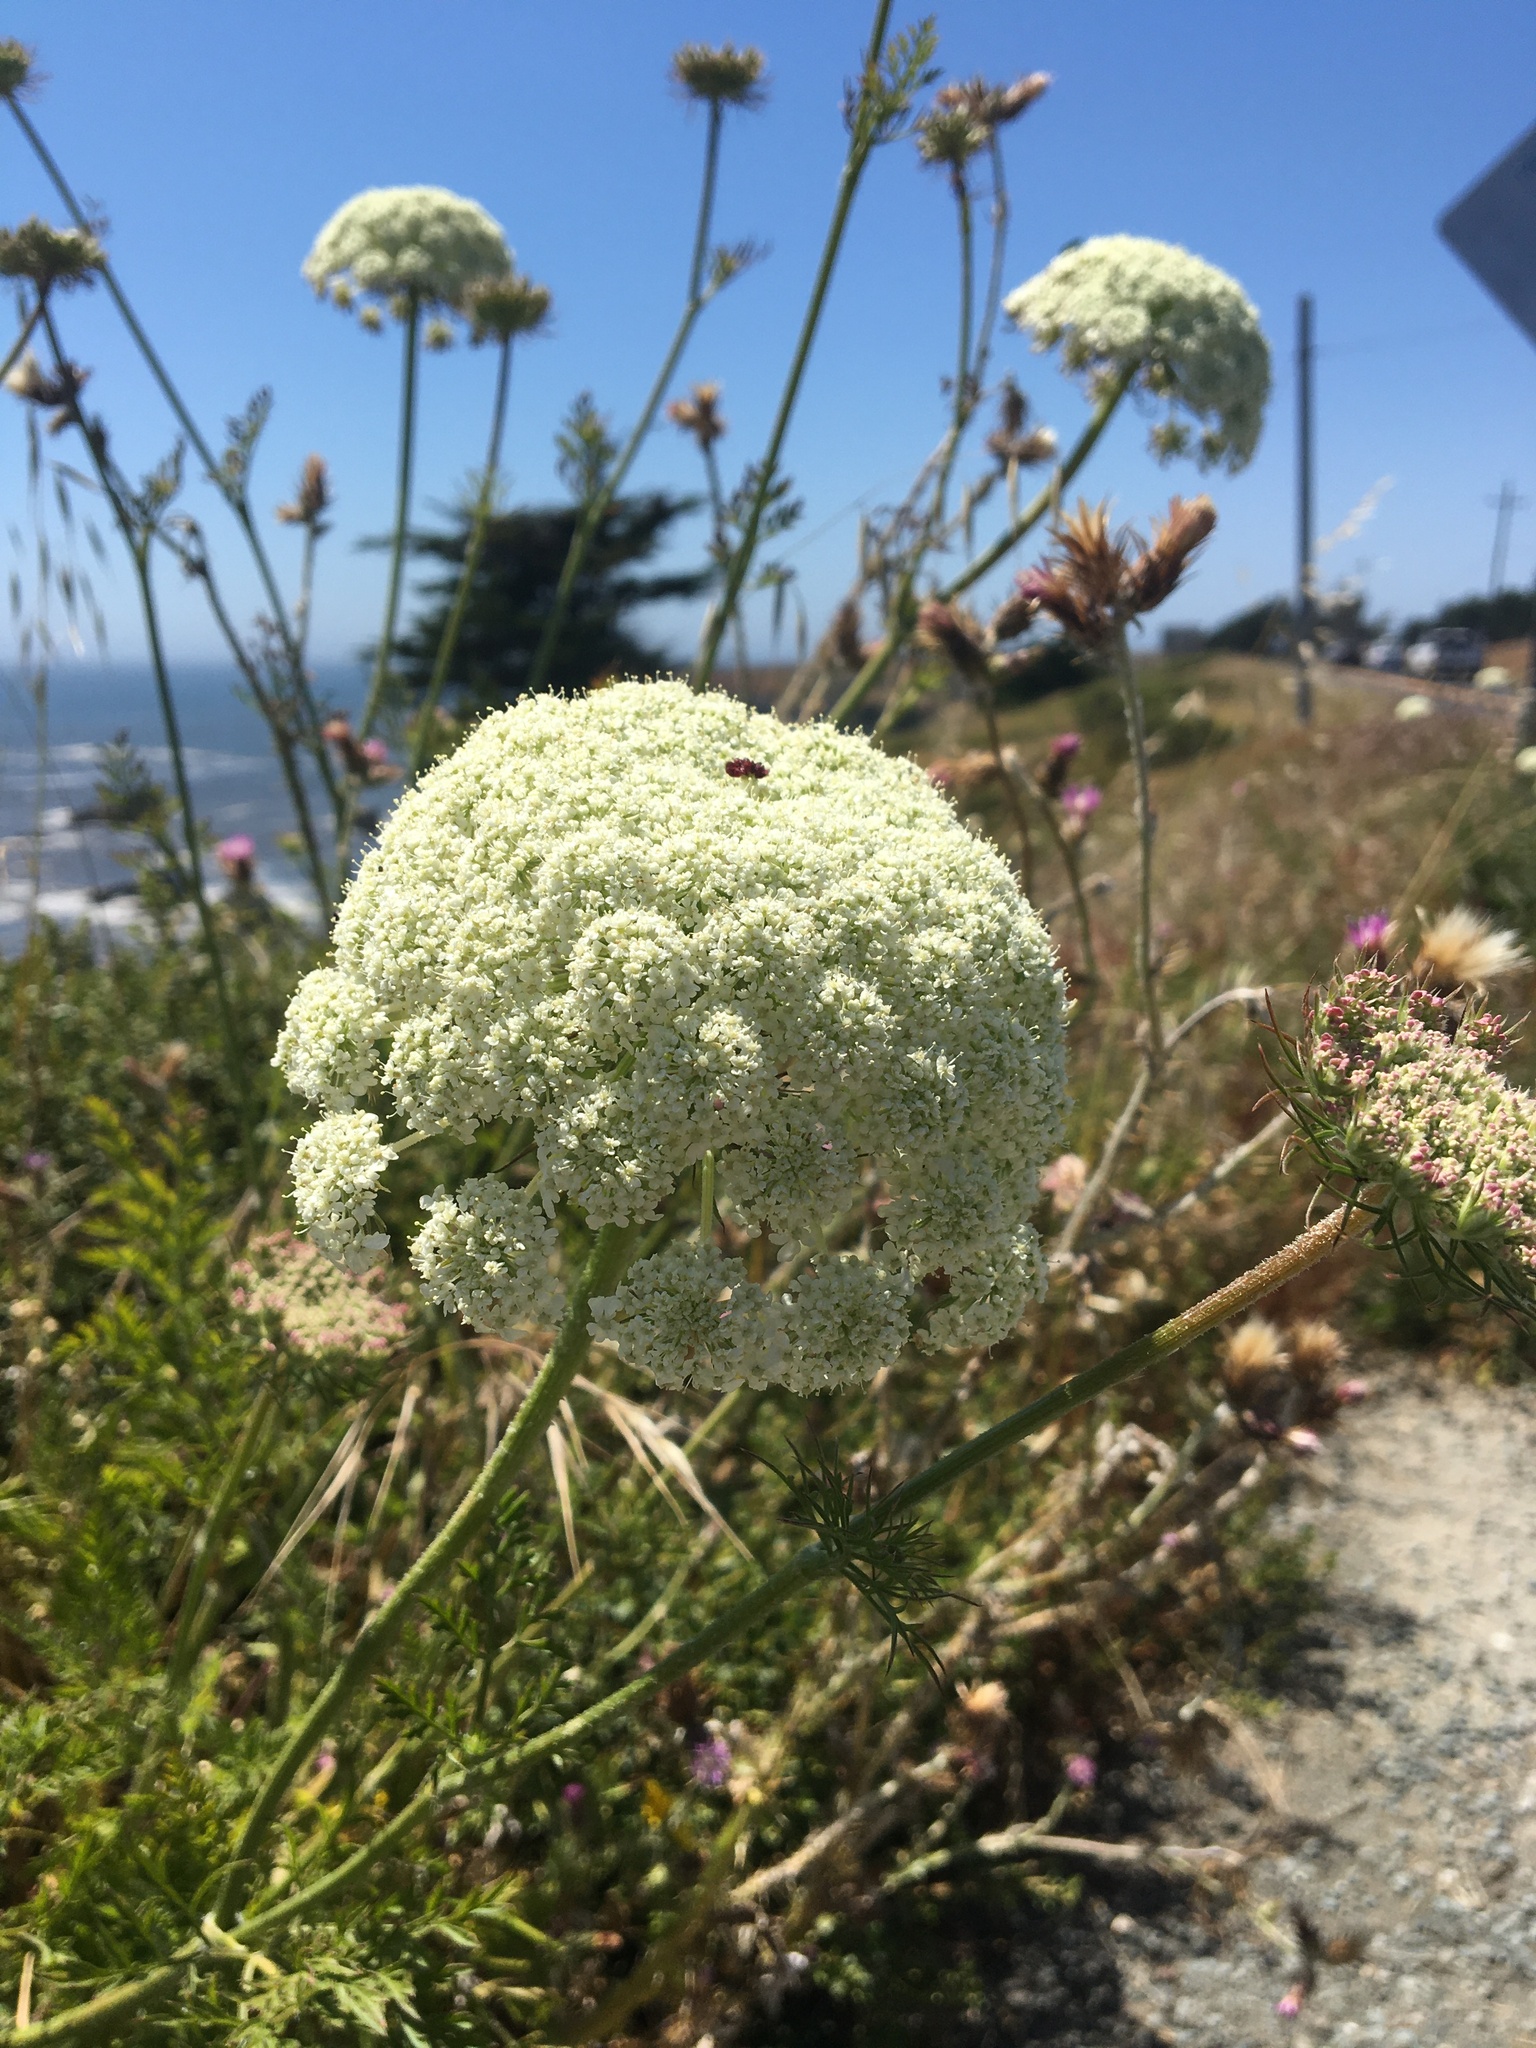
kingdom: Plantae
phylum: Tracheophyta
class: Magnoliopsida
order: Apiales
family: Apiaceae
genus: Daucus
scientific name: Daucus carota
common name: Wild carrot
